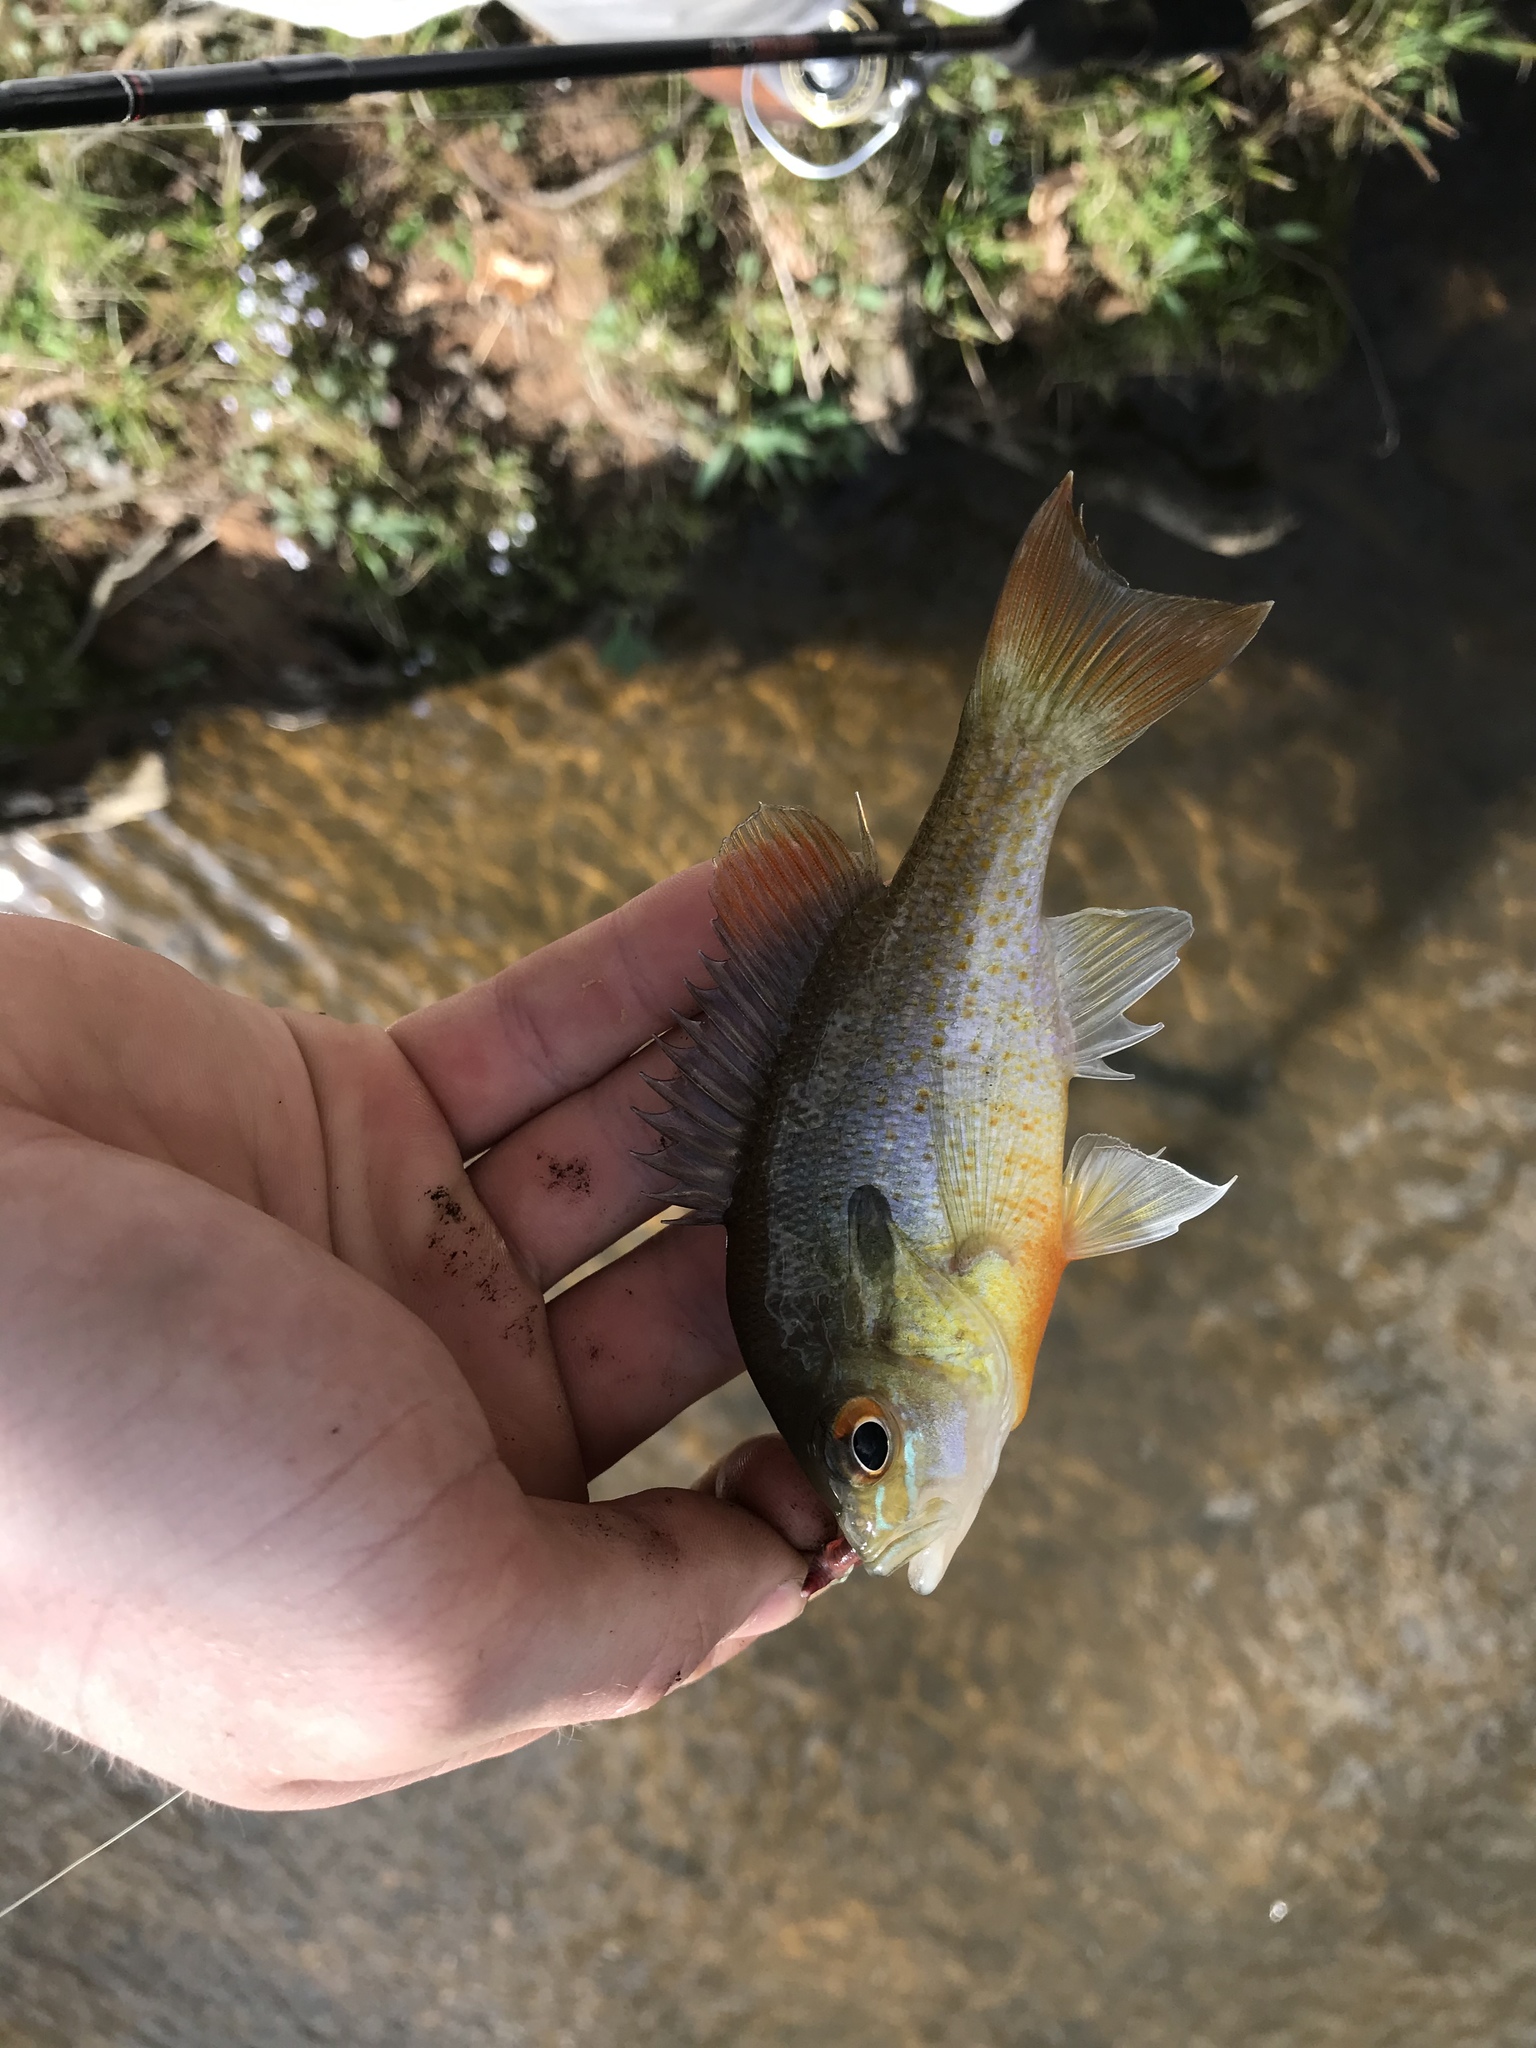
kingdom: Animalia
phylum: Chordata
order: Perciformes
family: Centrarchidae
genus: Lepomis
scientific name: Lepomis auritus
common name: Redbreast sunfish
